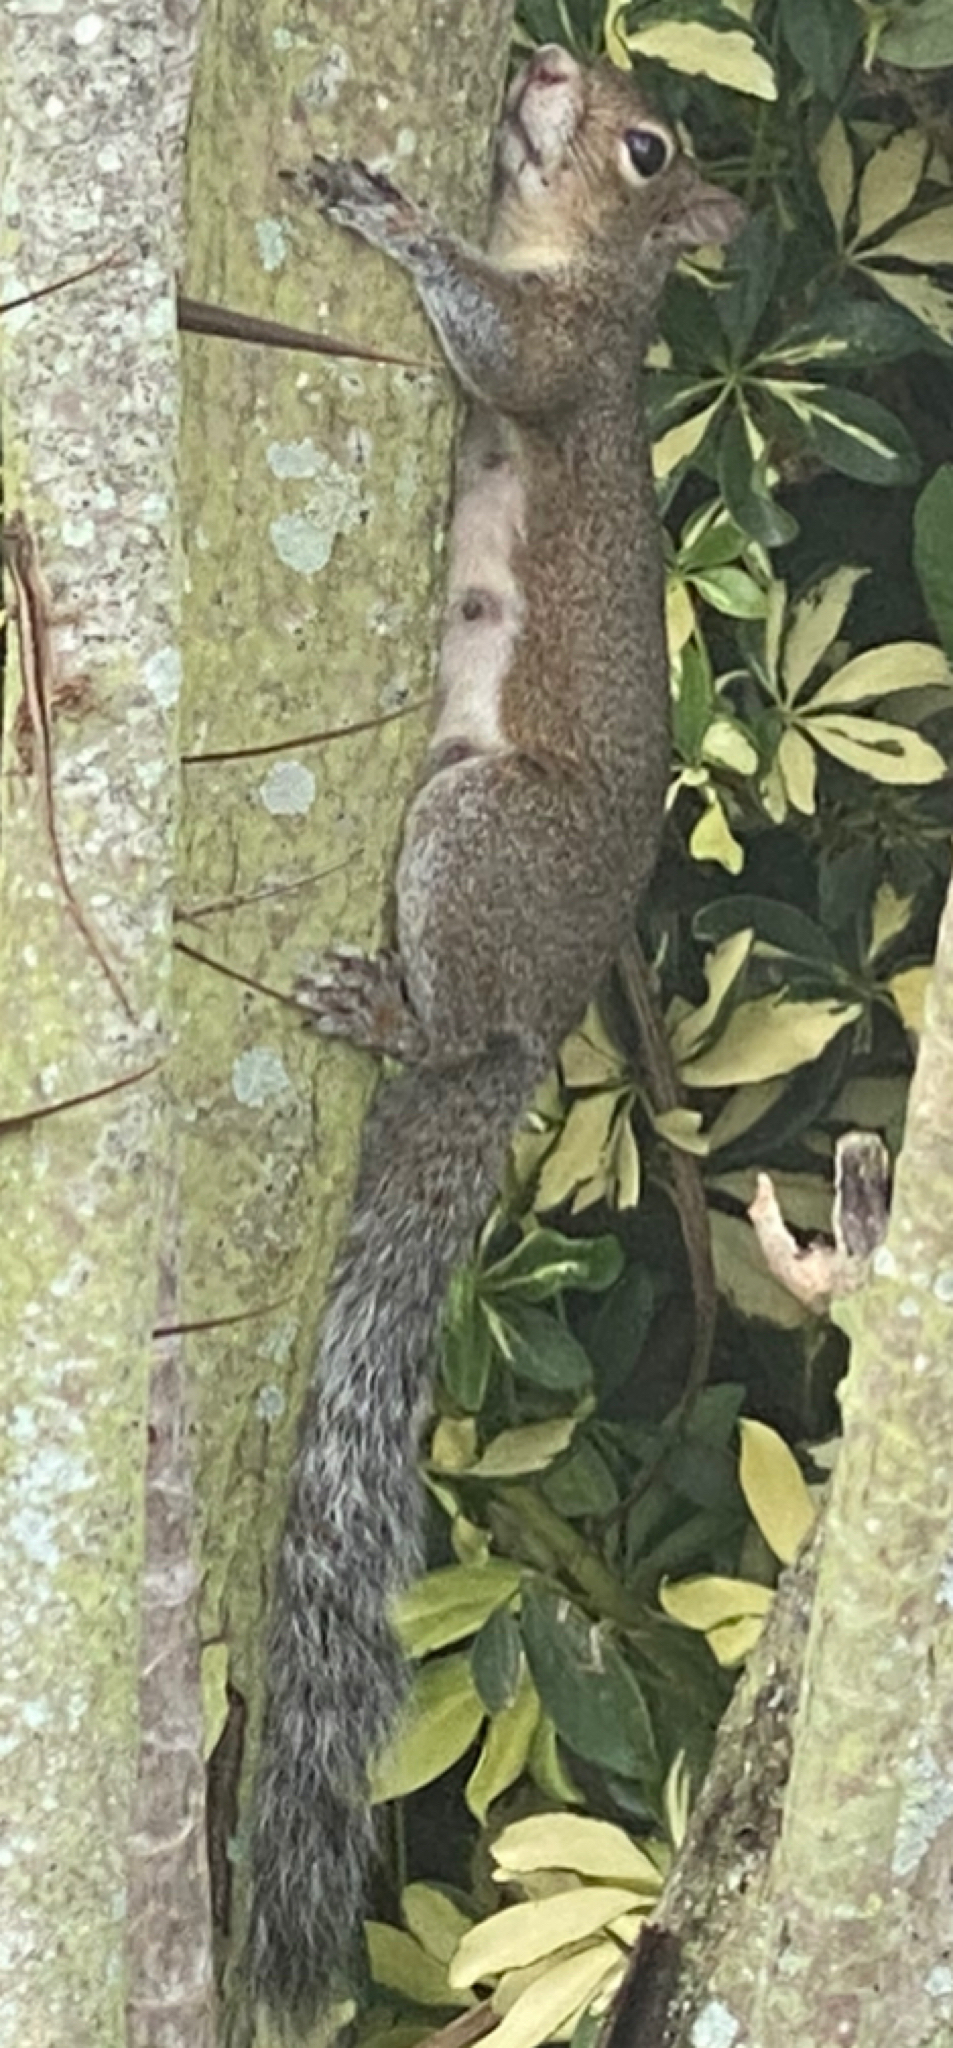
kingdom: Animalia
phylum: Chordata
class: Mammalia
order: Rodentia
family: Sciuridae
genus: Sciurus
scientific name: Sciurus carolinensis
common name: Eastern gray squirrel
